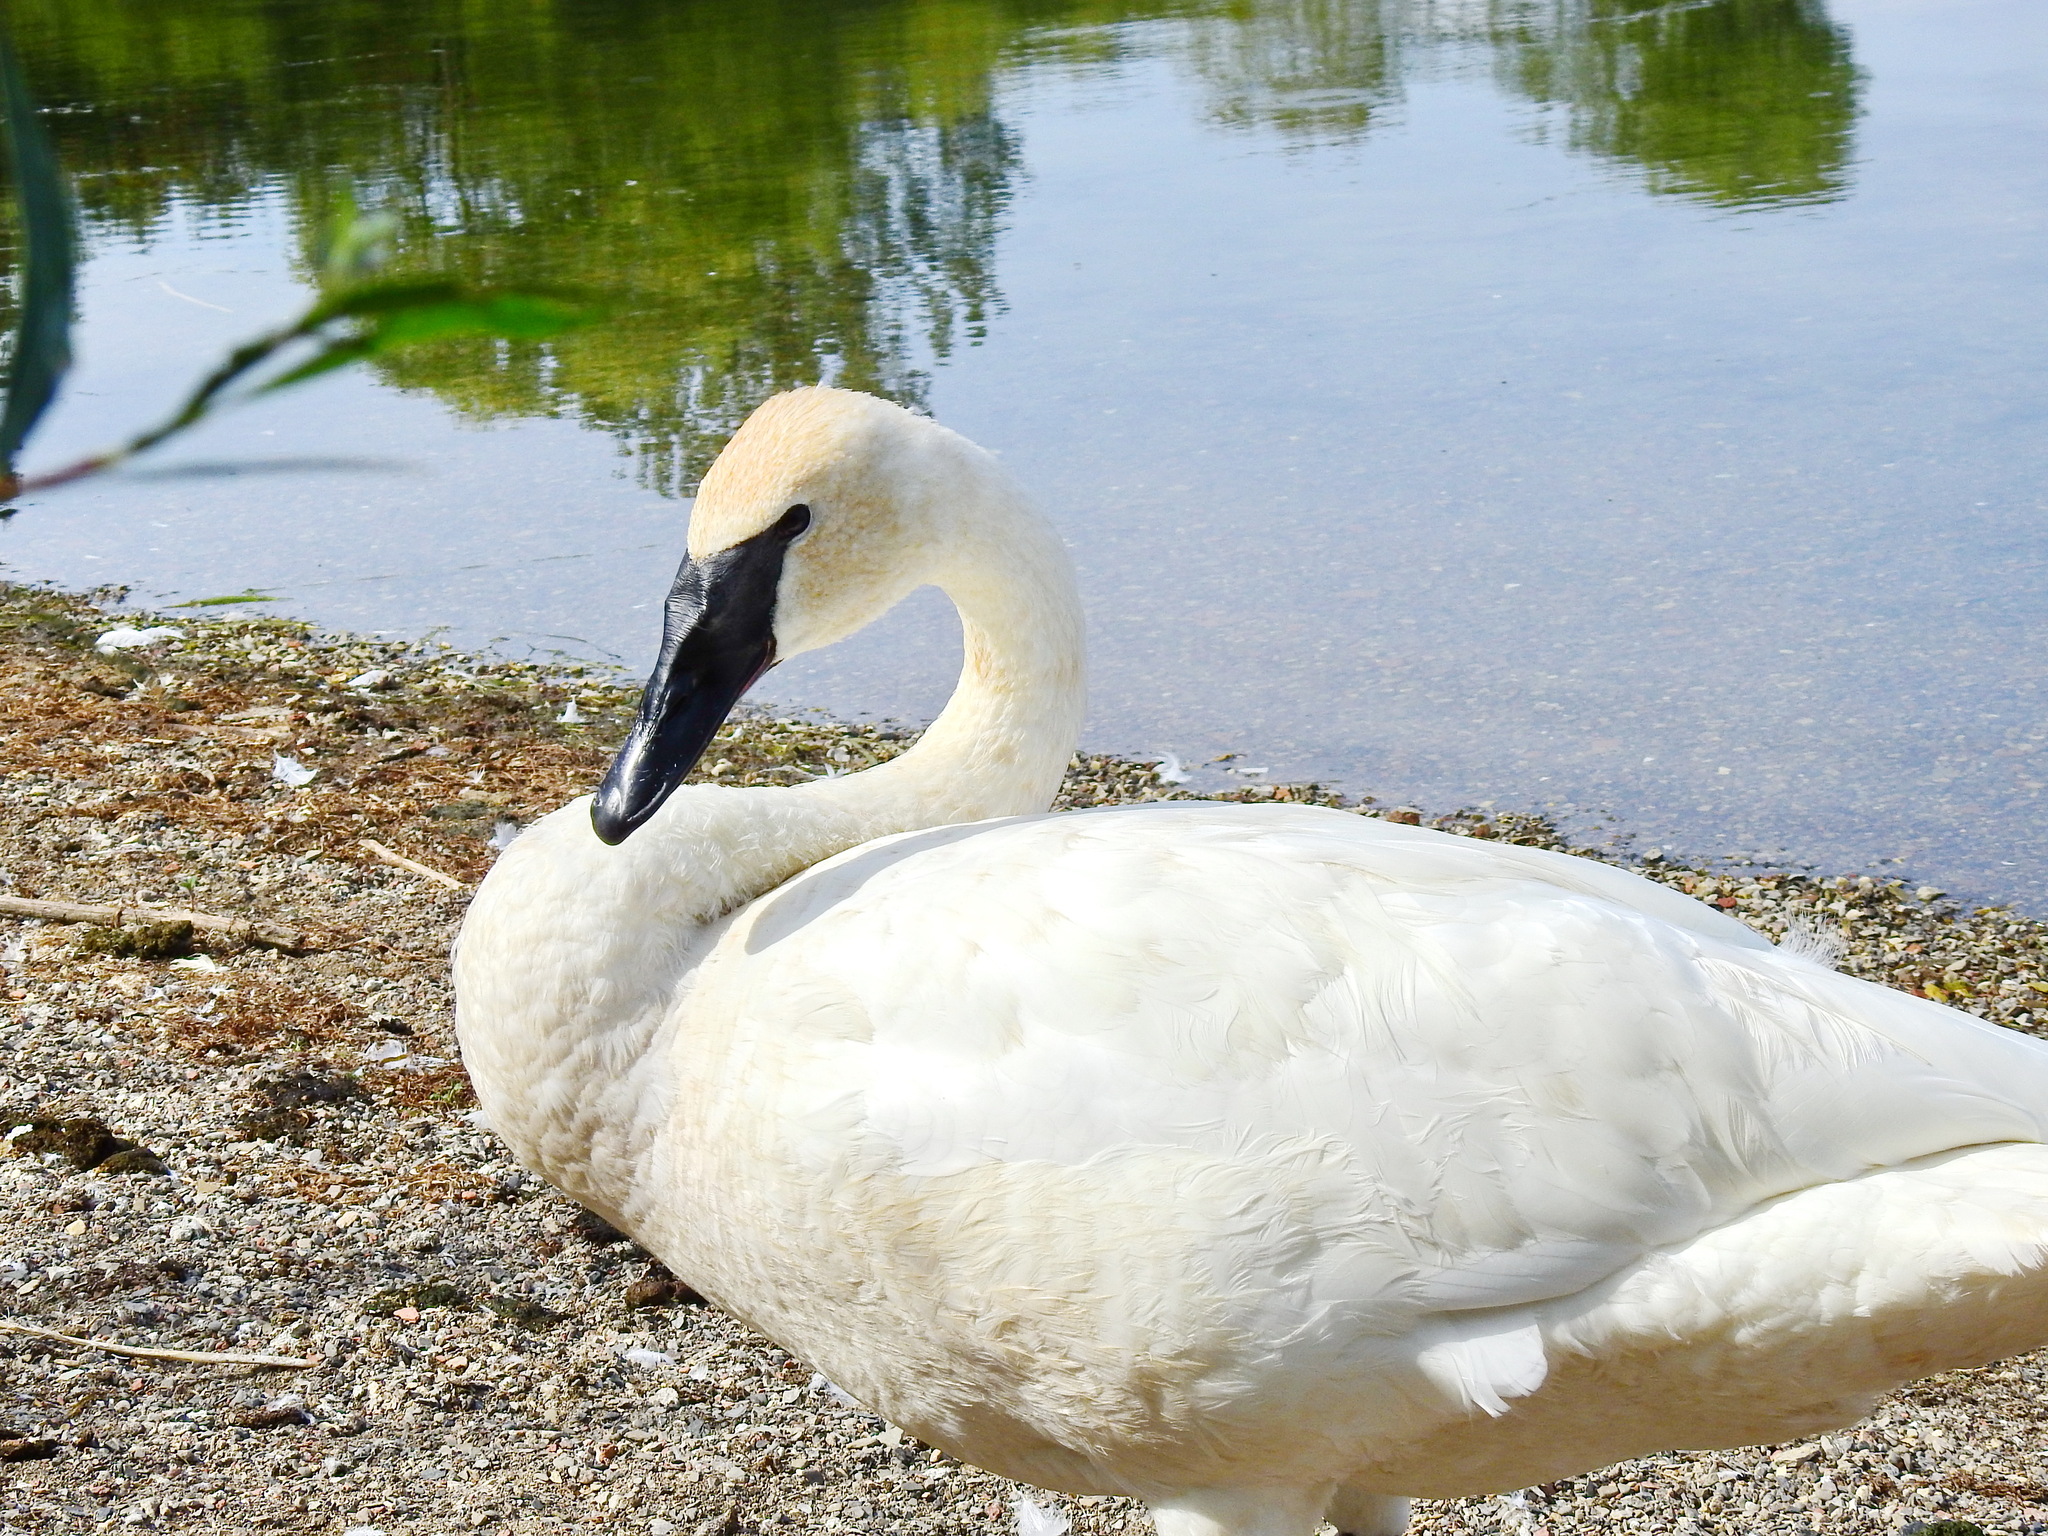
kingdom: Animalia
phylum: Chordata
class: Aves
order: Anseriformes
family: Anatidae
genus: Cygnus
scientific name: Cygnus buccinator
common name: Trumpeter swan
